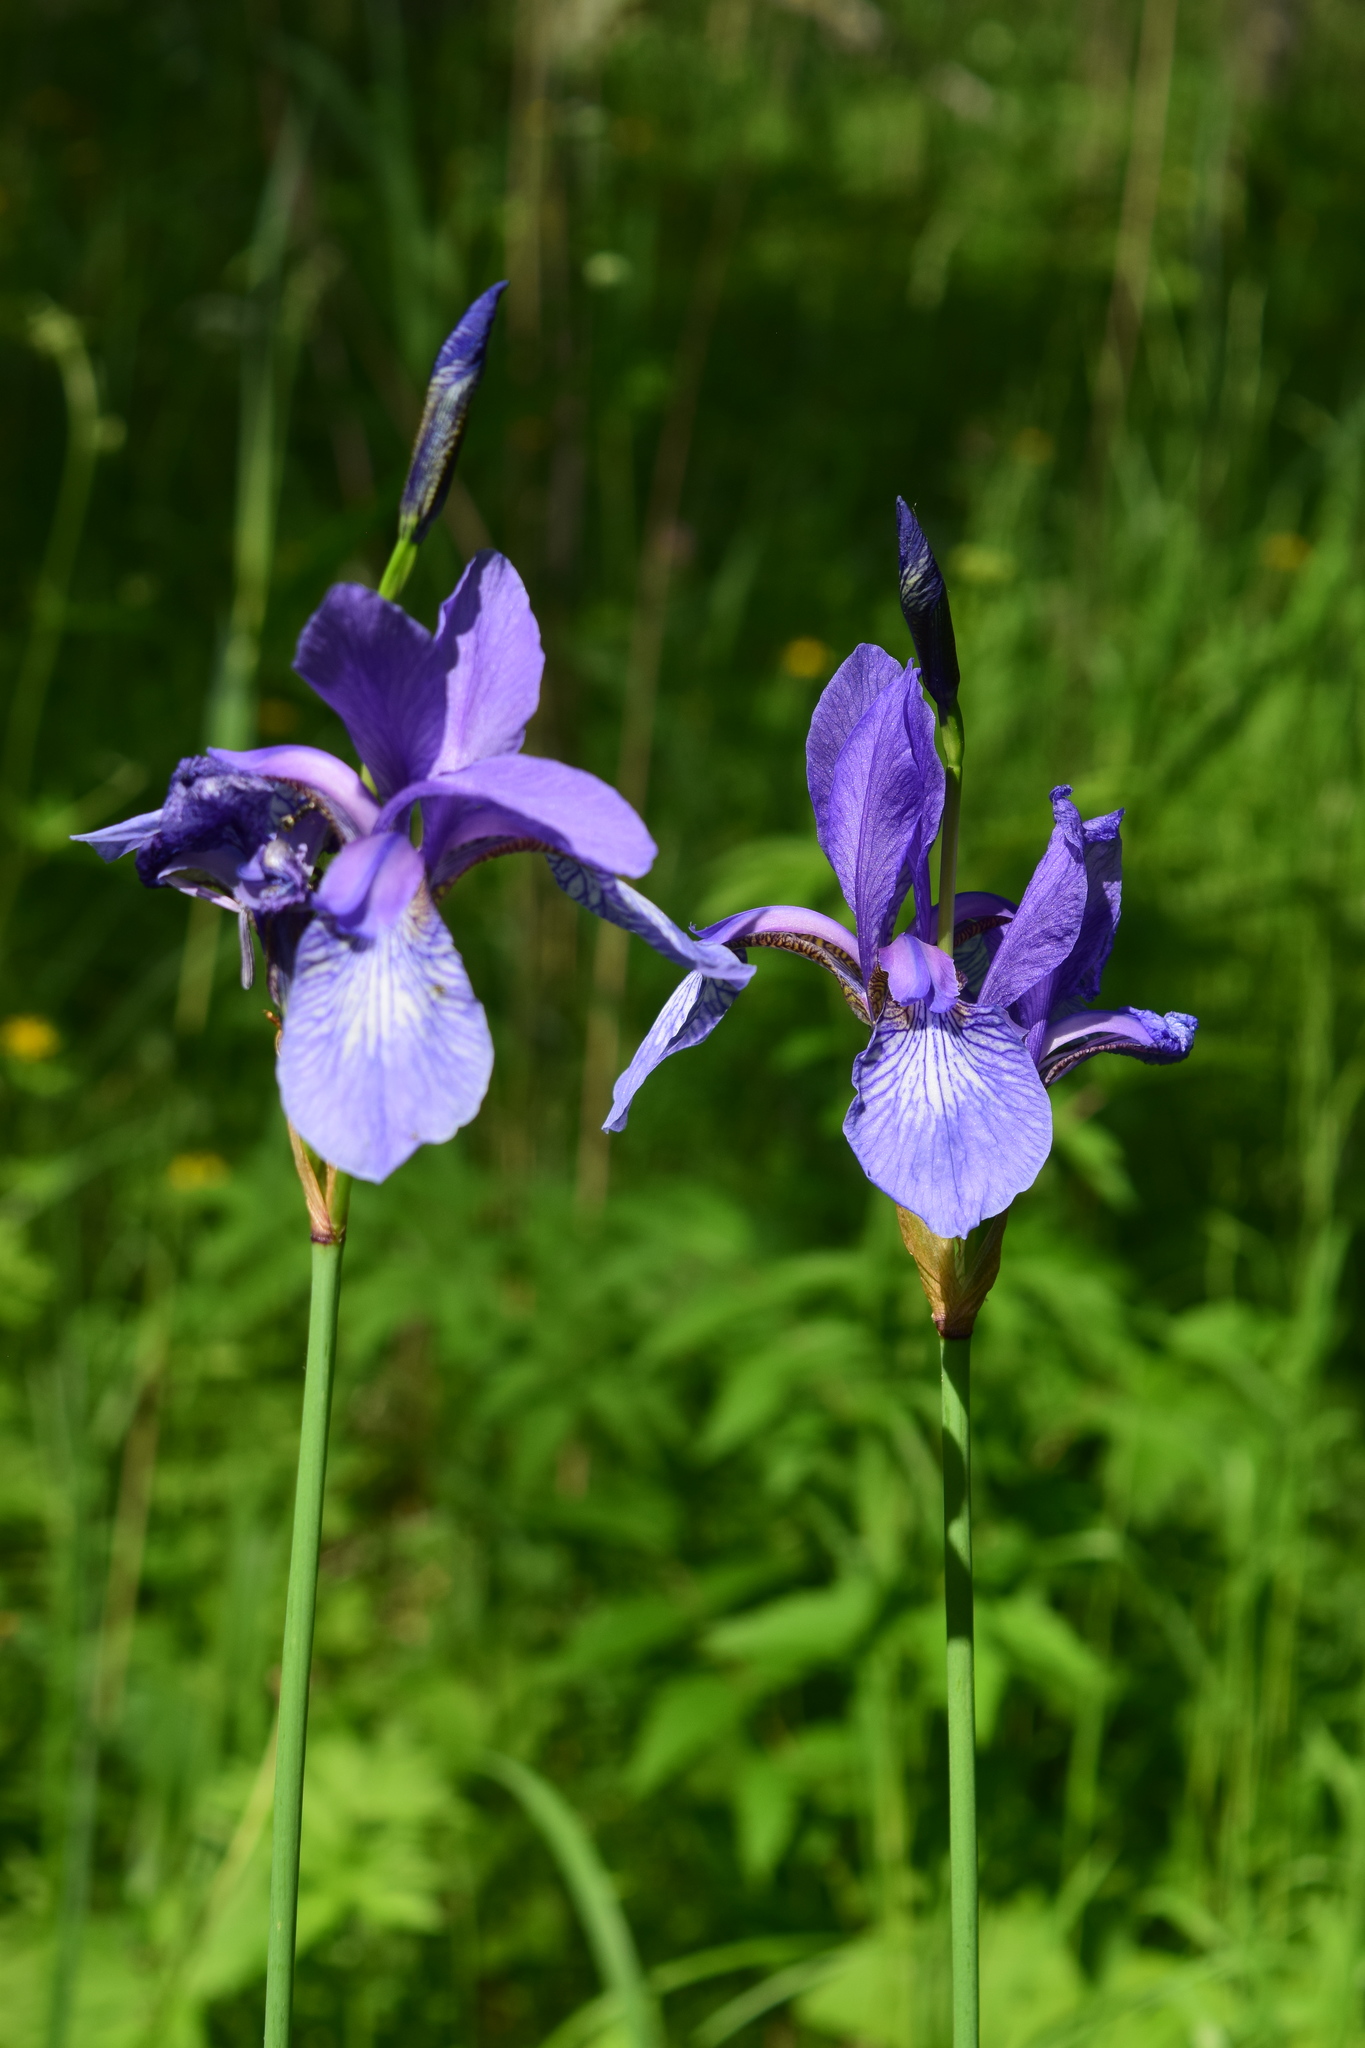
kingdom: Plantae
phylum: Tracheophyta
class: Liliopsida
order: Asparagales
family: Iridaceae
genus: Iris
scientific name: Iris sibirica
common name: Siberian iris
